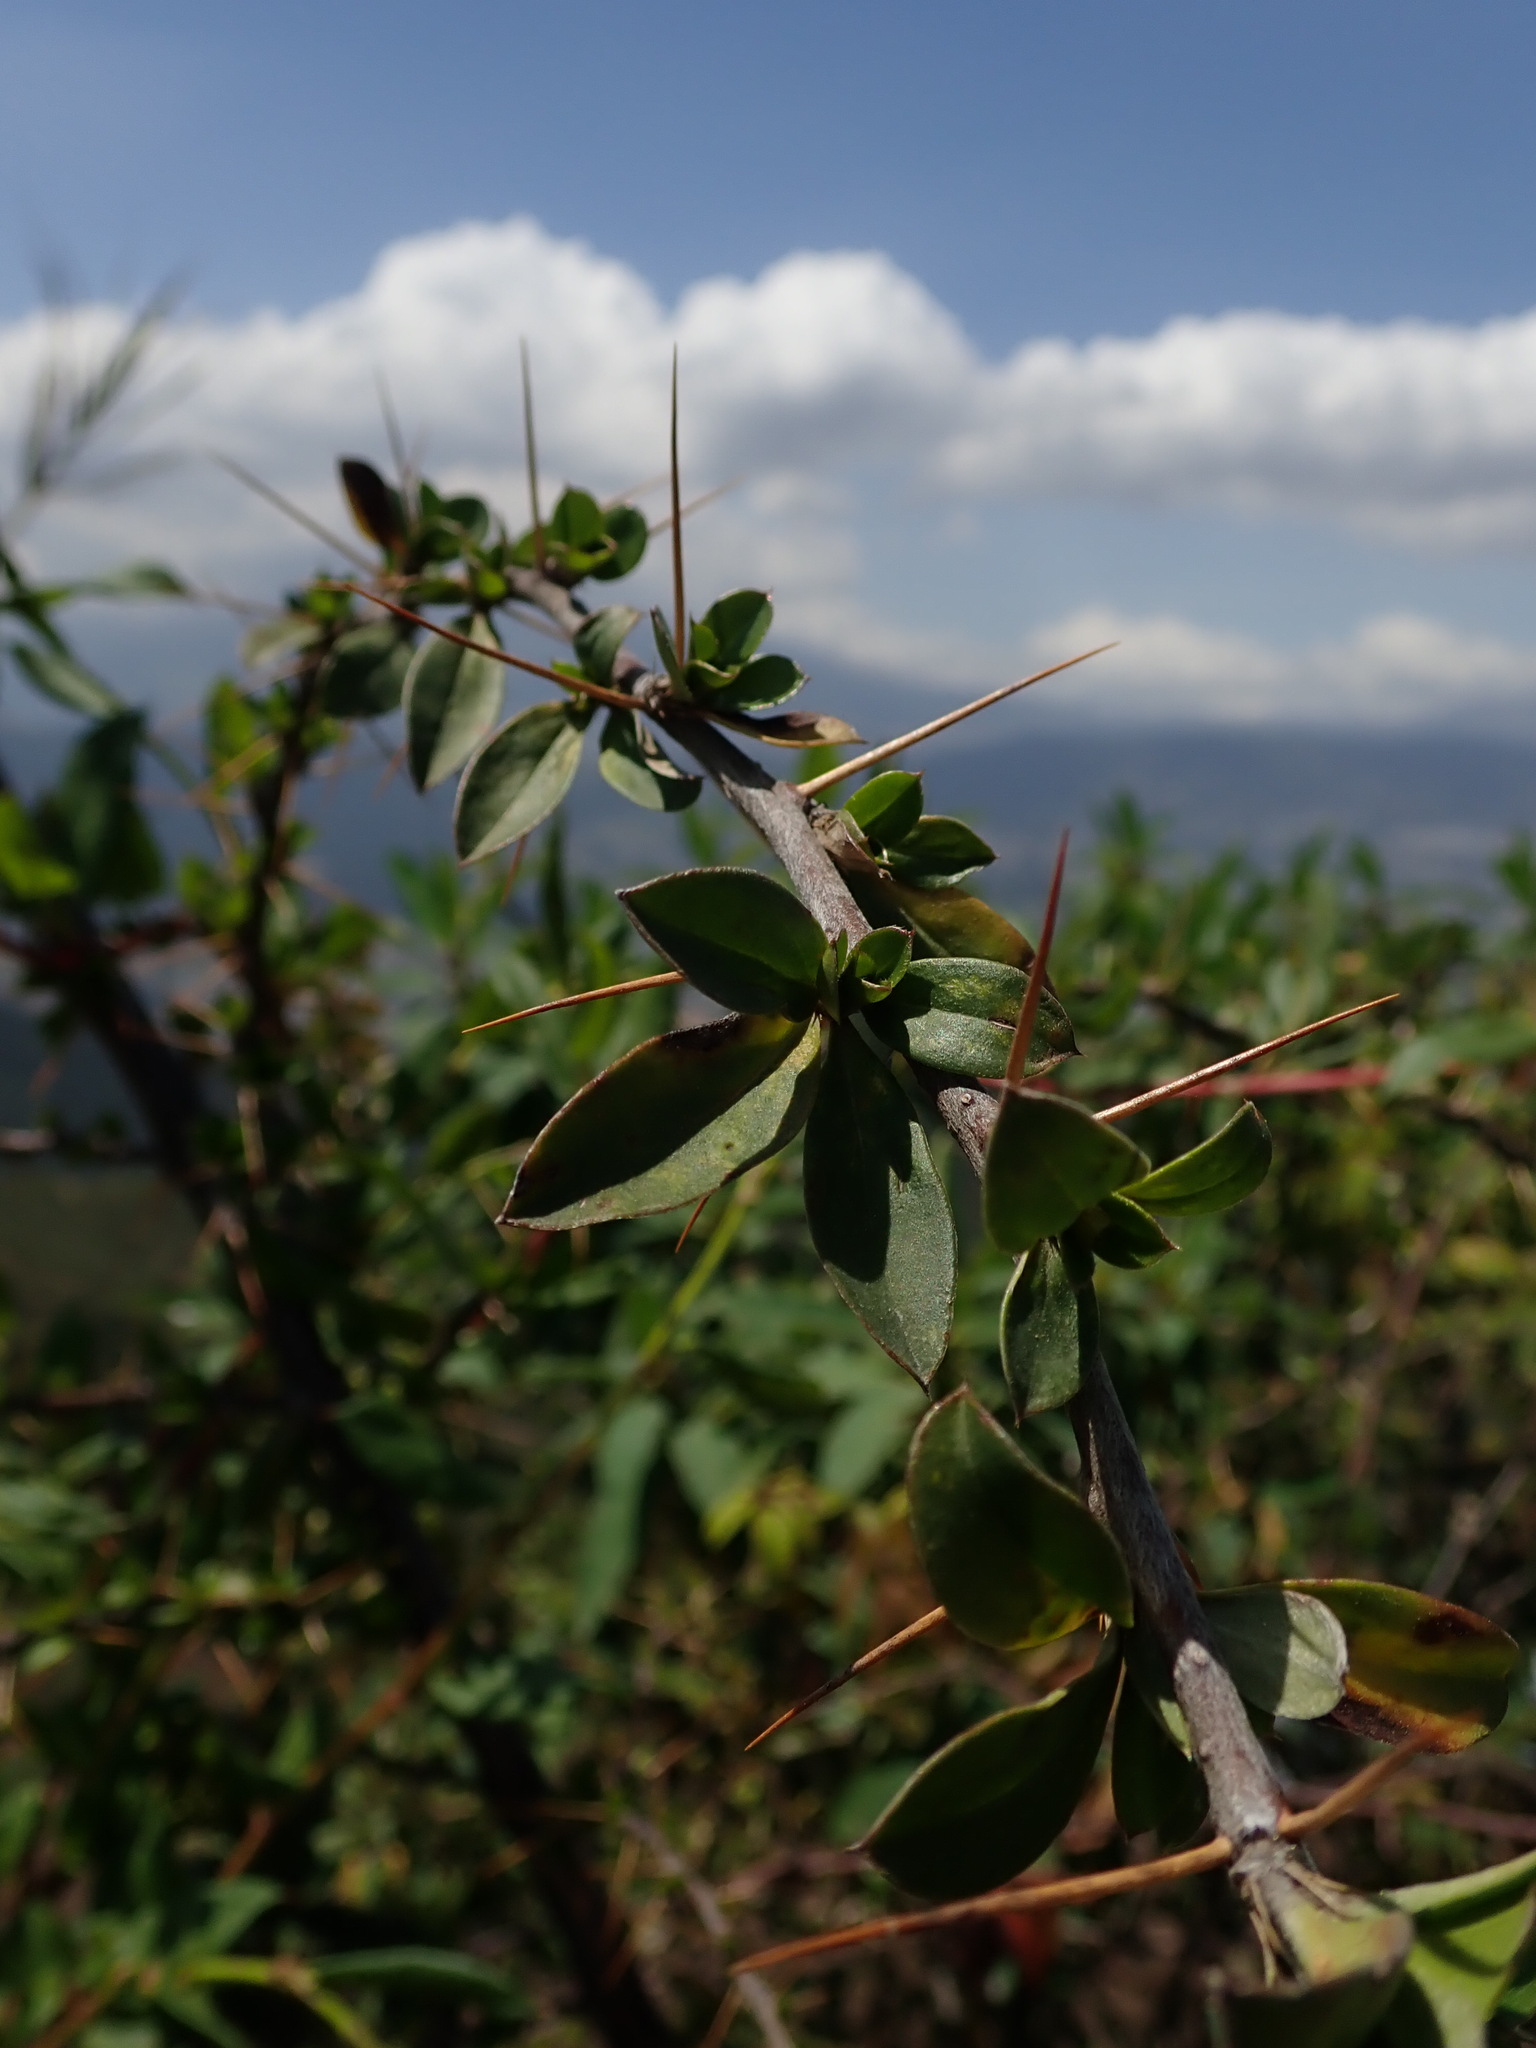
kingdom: Plantae
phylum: Tracheophyta
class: Magnoliopsida
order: Asterales
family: Asteraceae
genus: Barnadesia
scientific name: Barnadesia arborea
